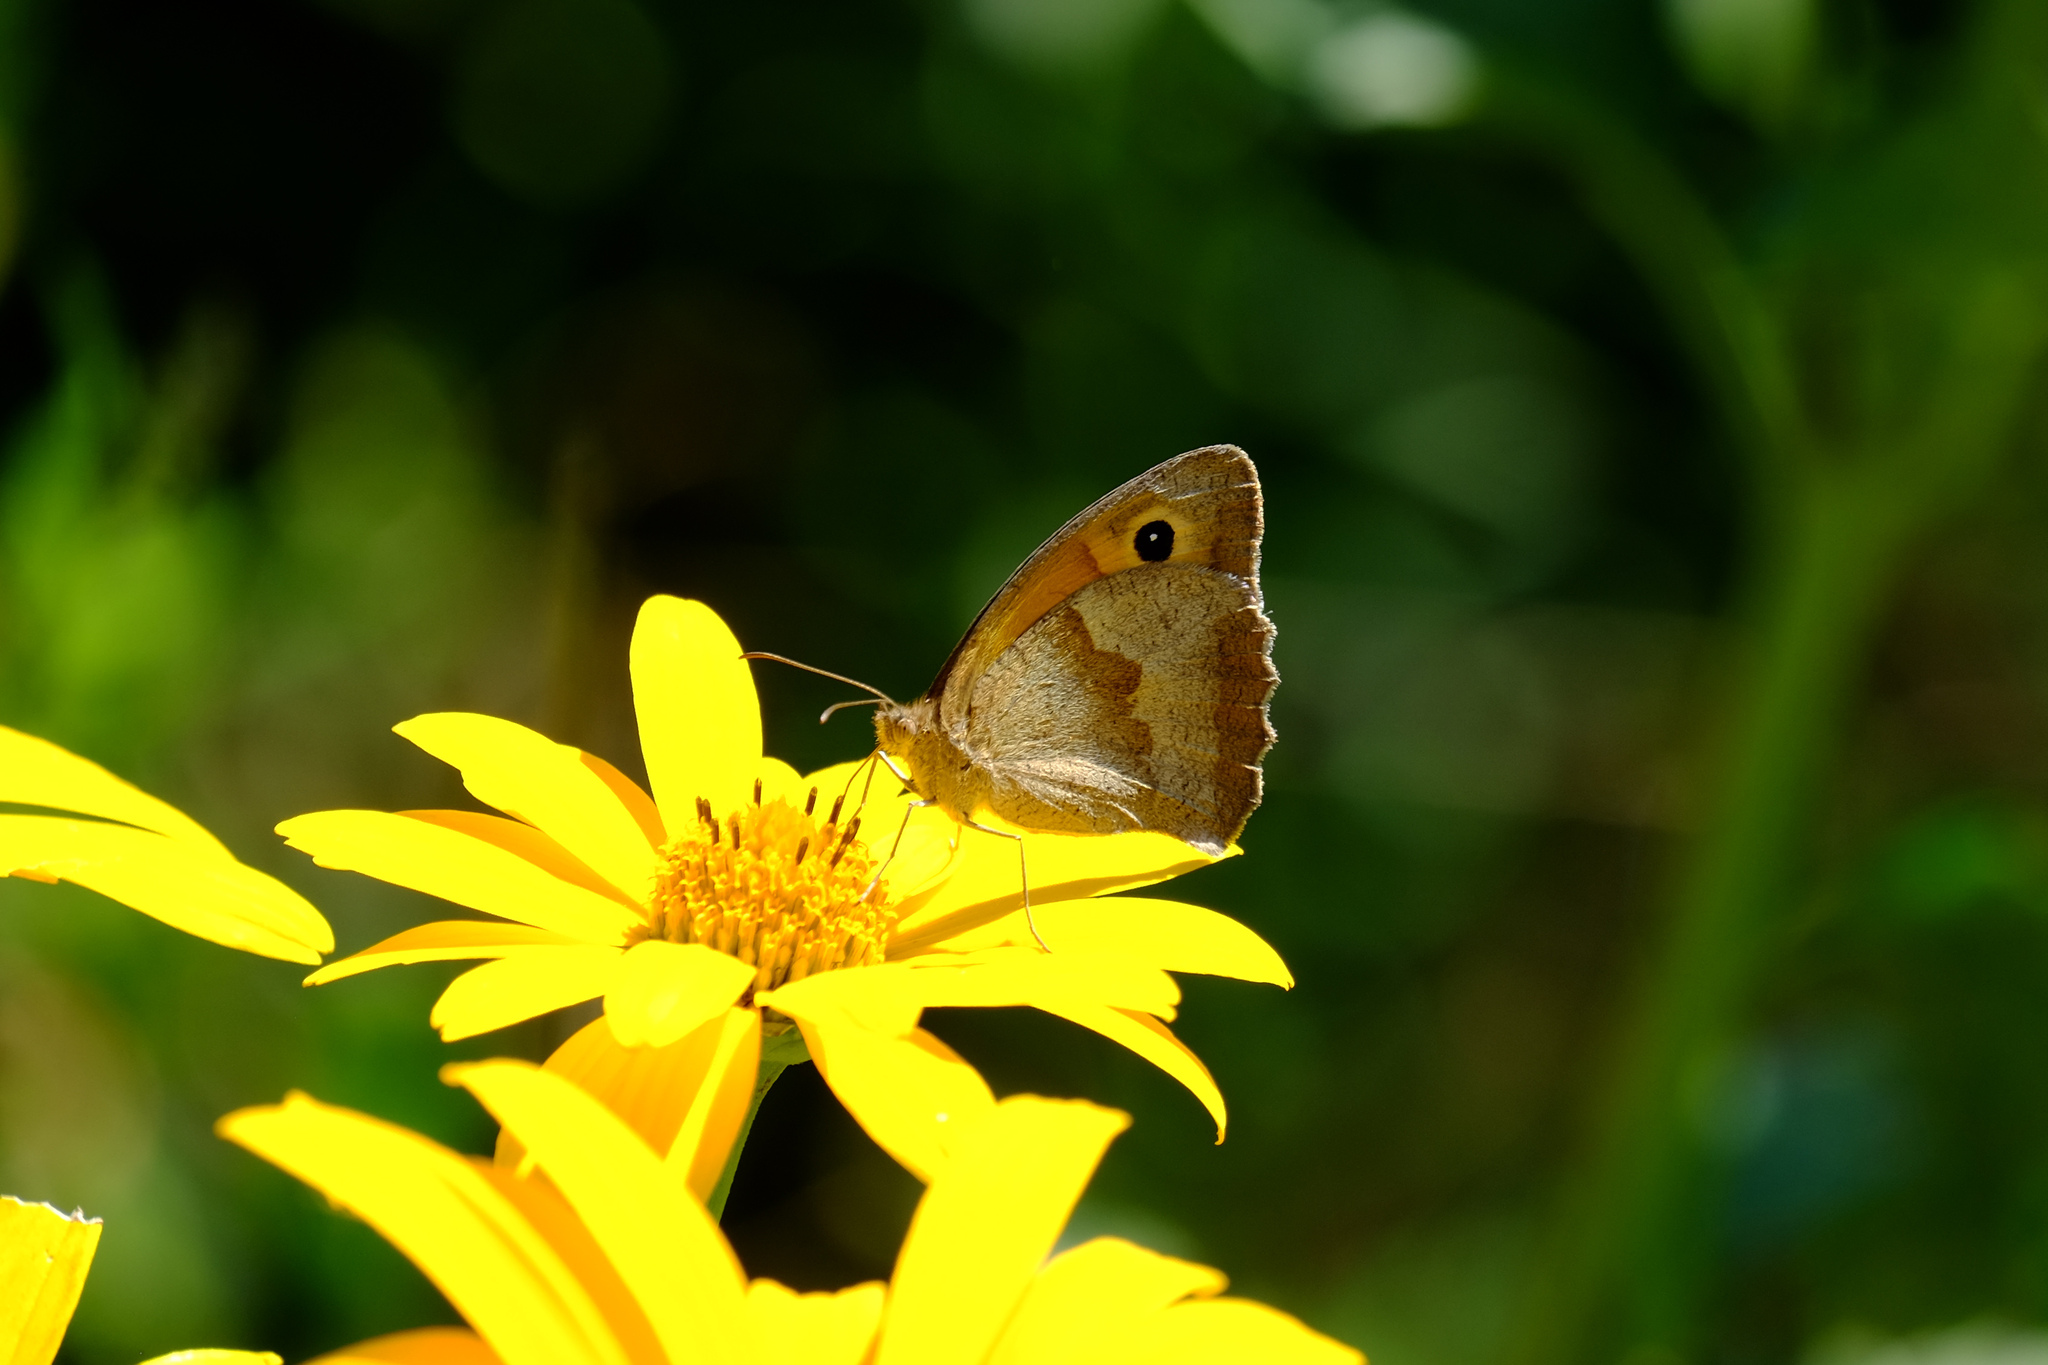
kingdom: Animalia
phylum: Arthropoda
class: Insecta
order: Lepidoptera
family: Nymphalidae
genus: Maniola
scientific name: Maniola jurtina
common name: Meadow brown
